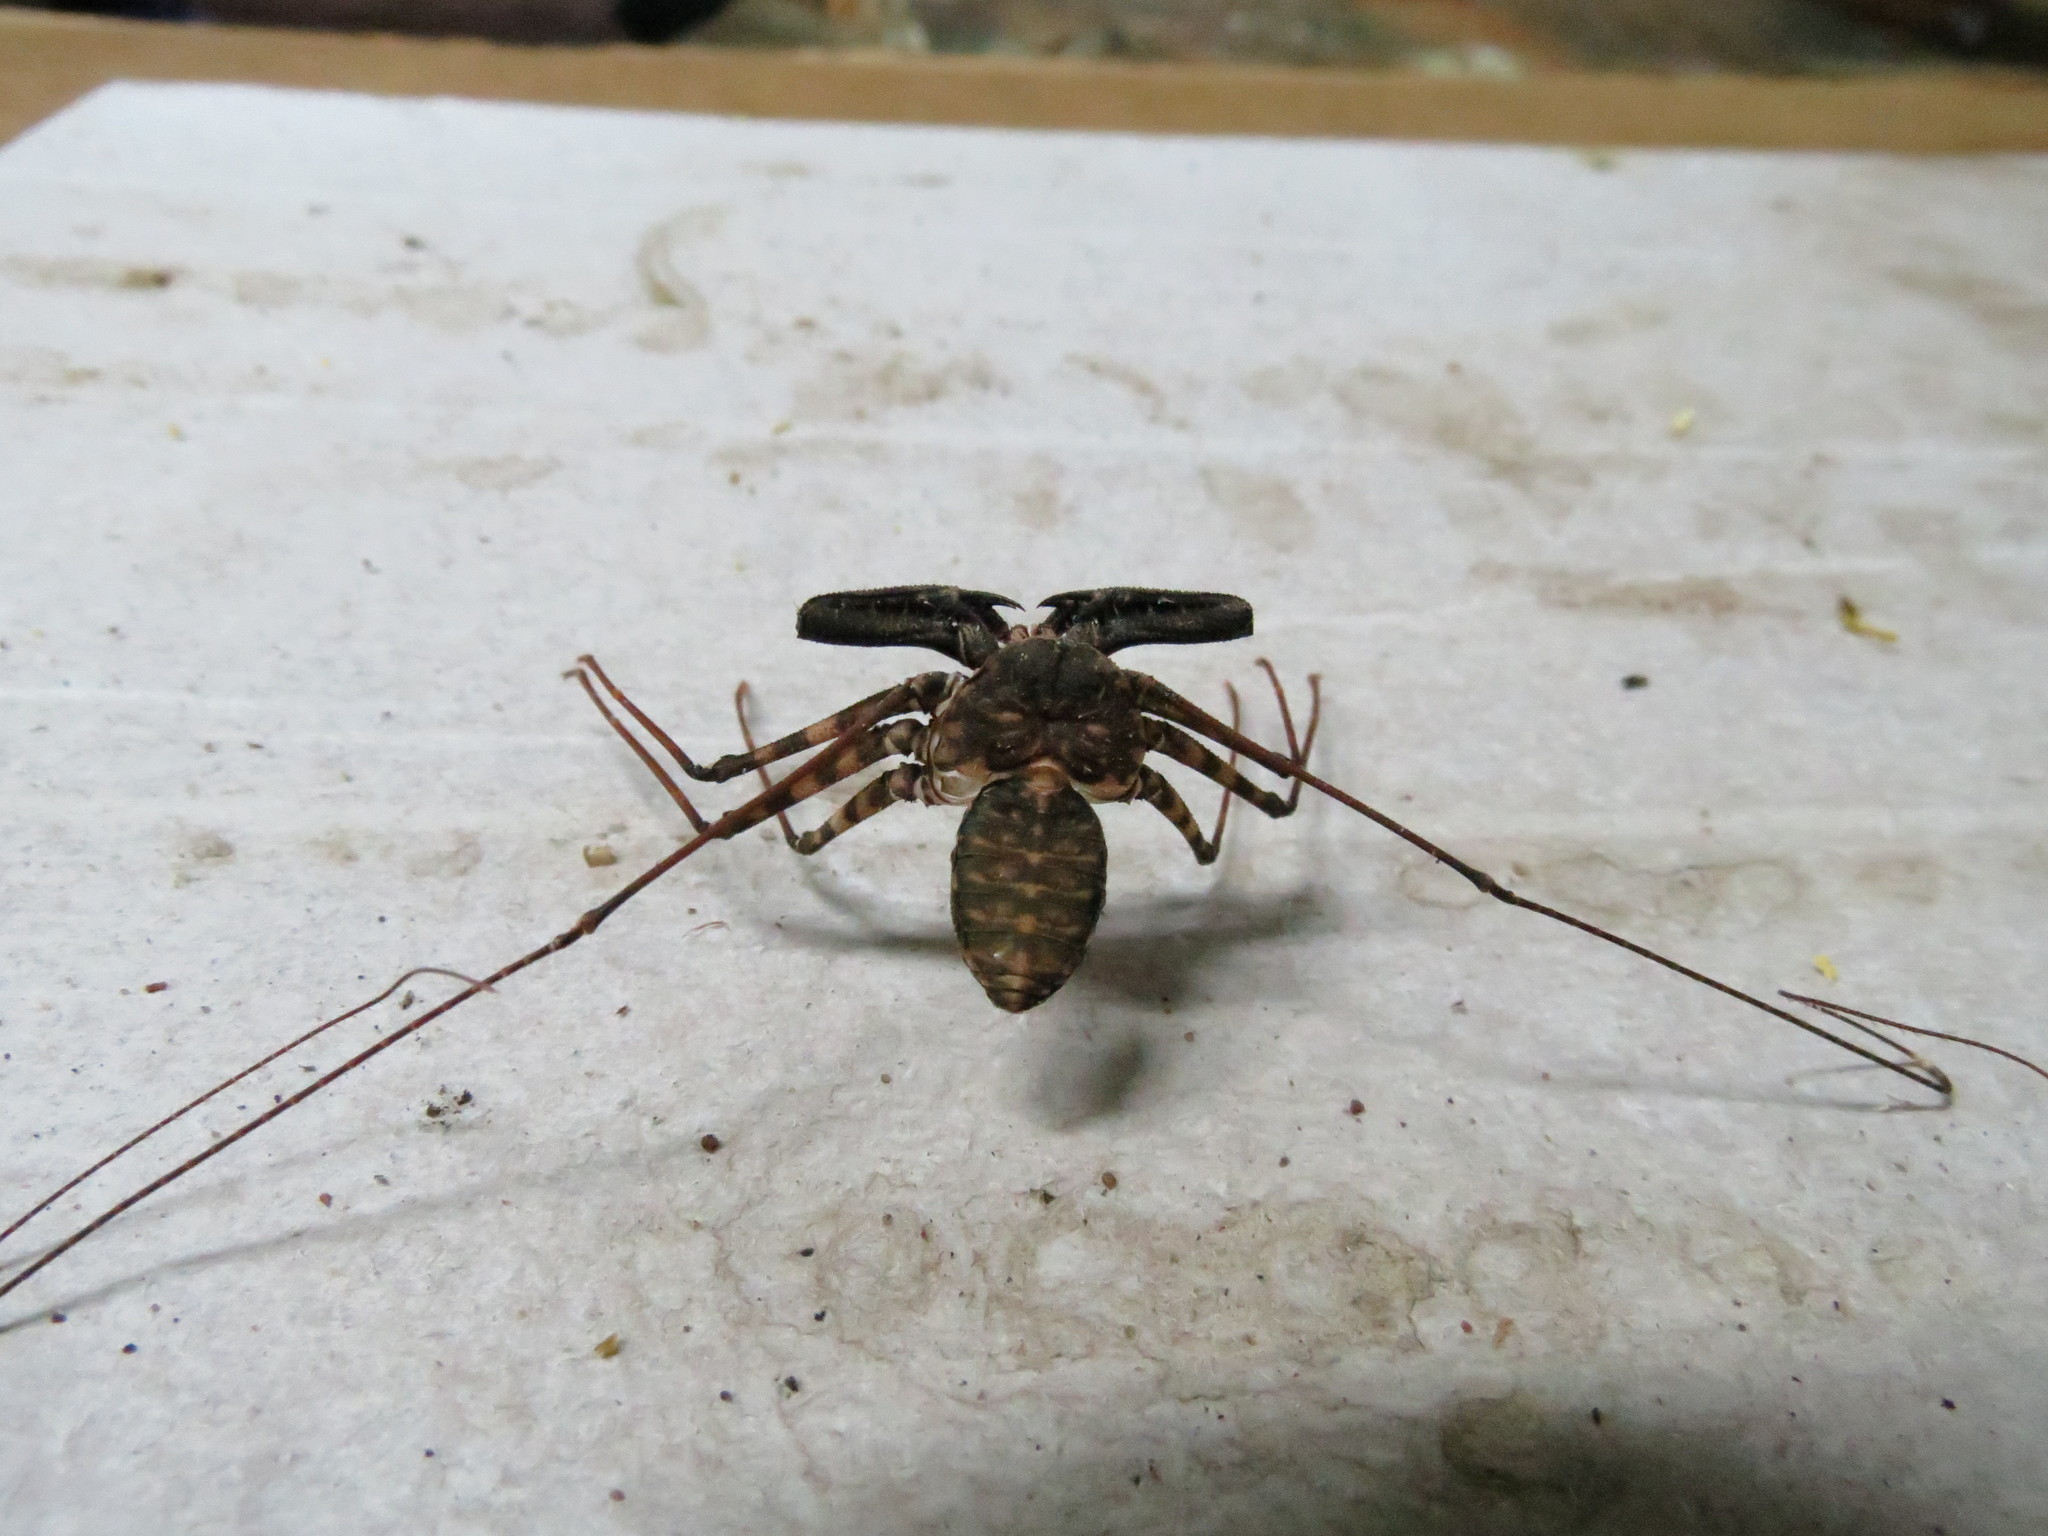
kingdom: Animalia
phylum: Arthropoda
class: Arachnida
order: Amblypygi
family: Phrynichidae
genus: Damon
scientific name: Damon annulatipes
